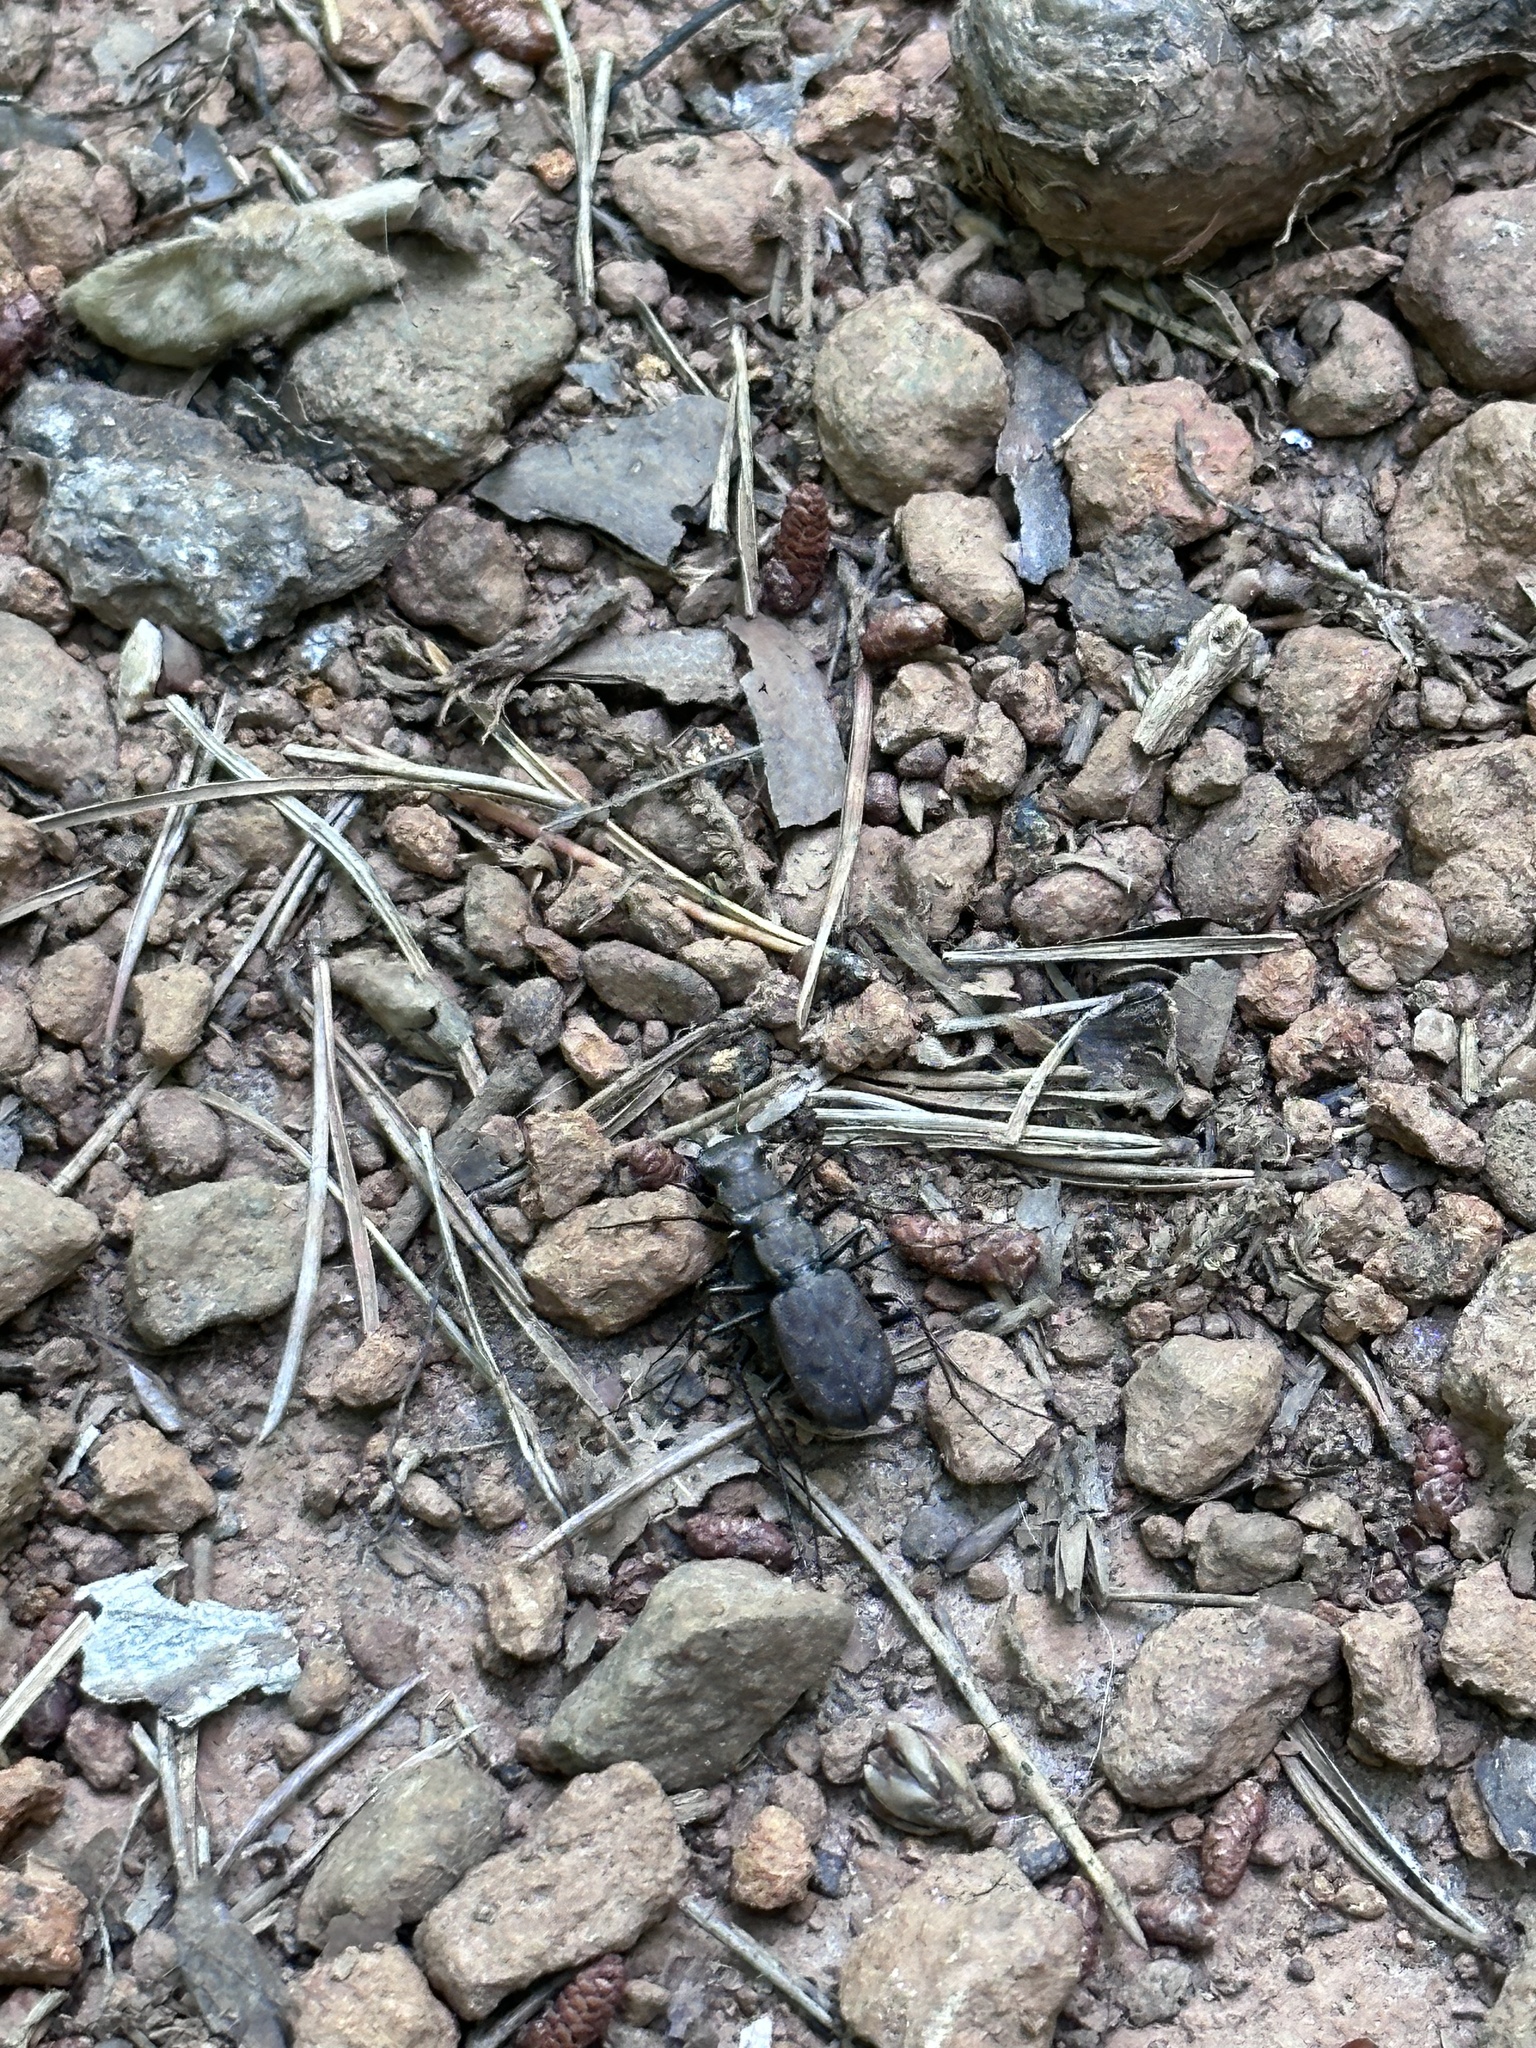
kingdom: Animalia
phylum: Arthropoda
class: Insecta
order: Coleoptera
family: Carabidae
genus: Cylindera
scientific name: Cylindera unipunctata
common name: One-spotted tiger beetle
